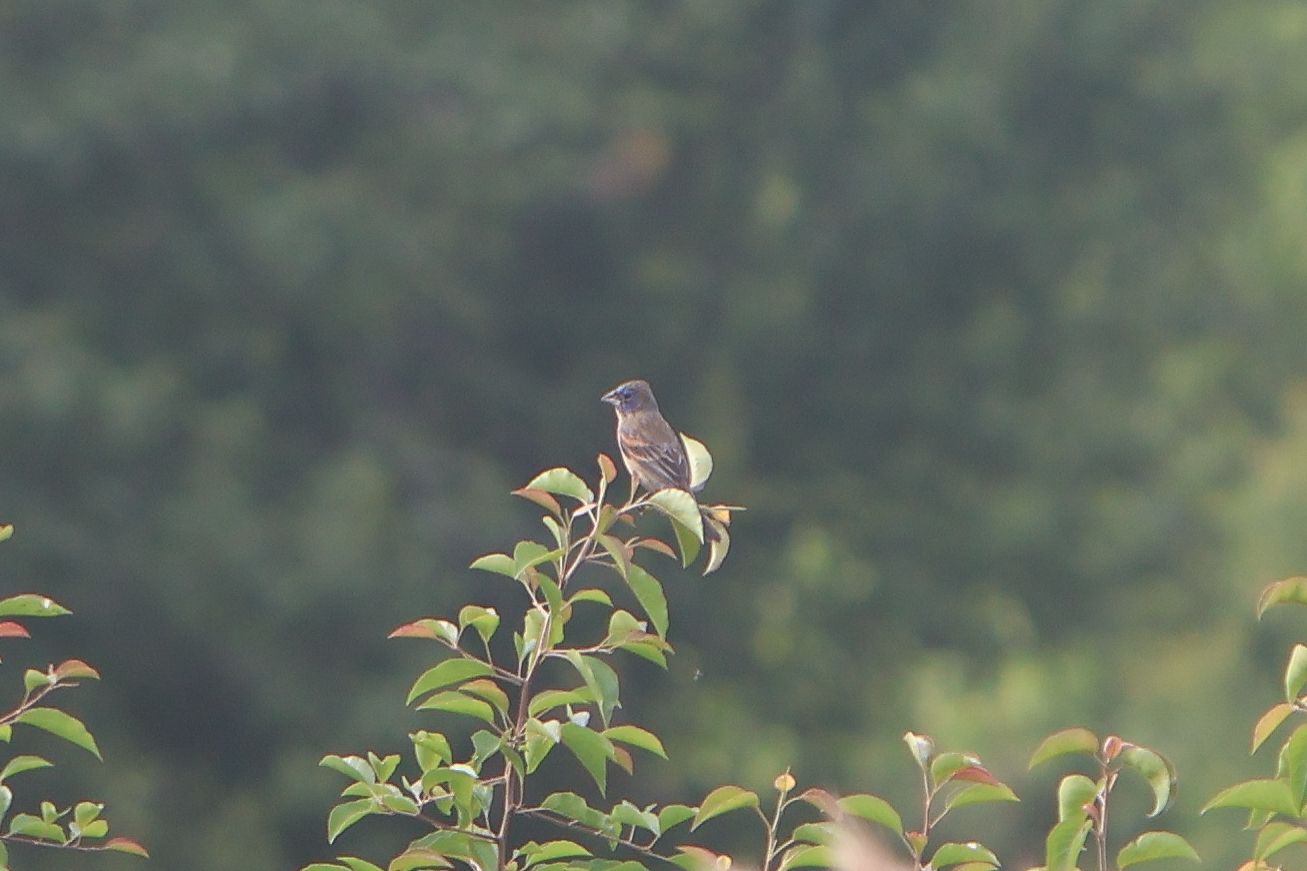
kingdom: Animalia
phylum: Chordata
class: Aves
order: Passeriformes
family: Cardinalidae
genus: Passerina
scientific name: Passerina caerulea
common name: Blue grosbeak
